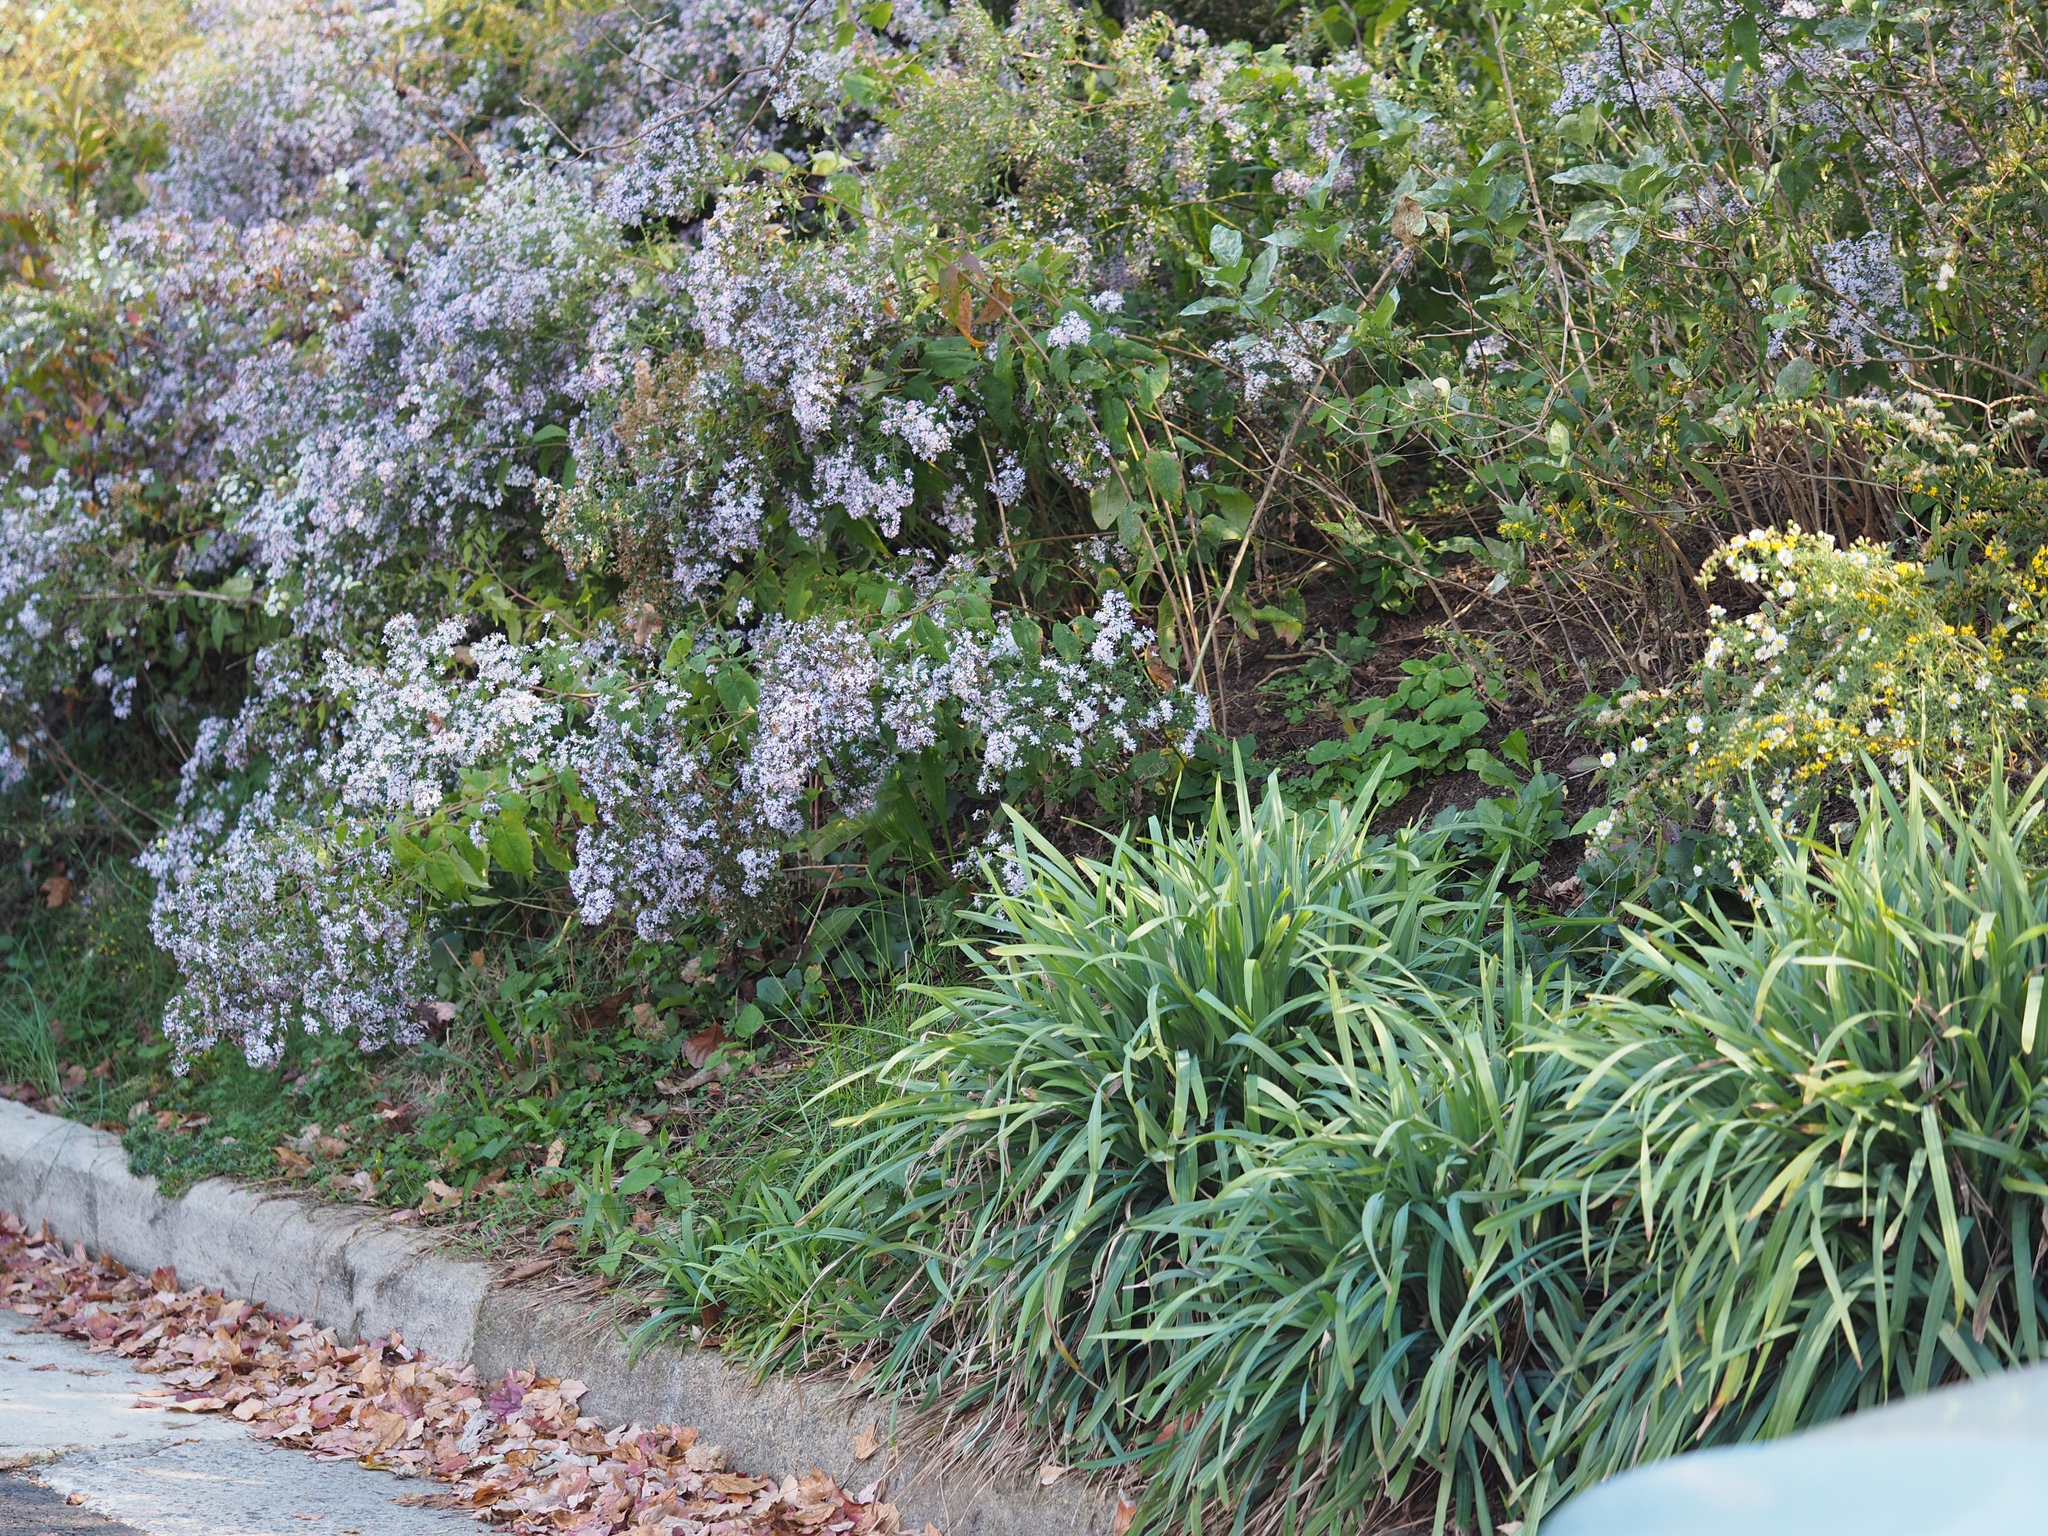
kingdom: Plantae
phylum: Tracheophyta
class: Magnoliopsida
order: Asterales
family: Asteraceae
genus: Symphyotrichum
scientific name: Symphyotrichum cordifolium
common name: Beeweed
